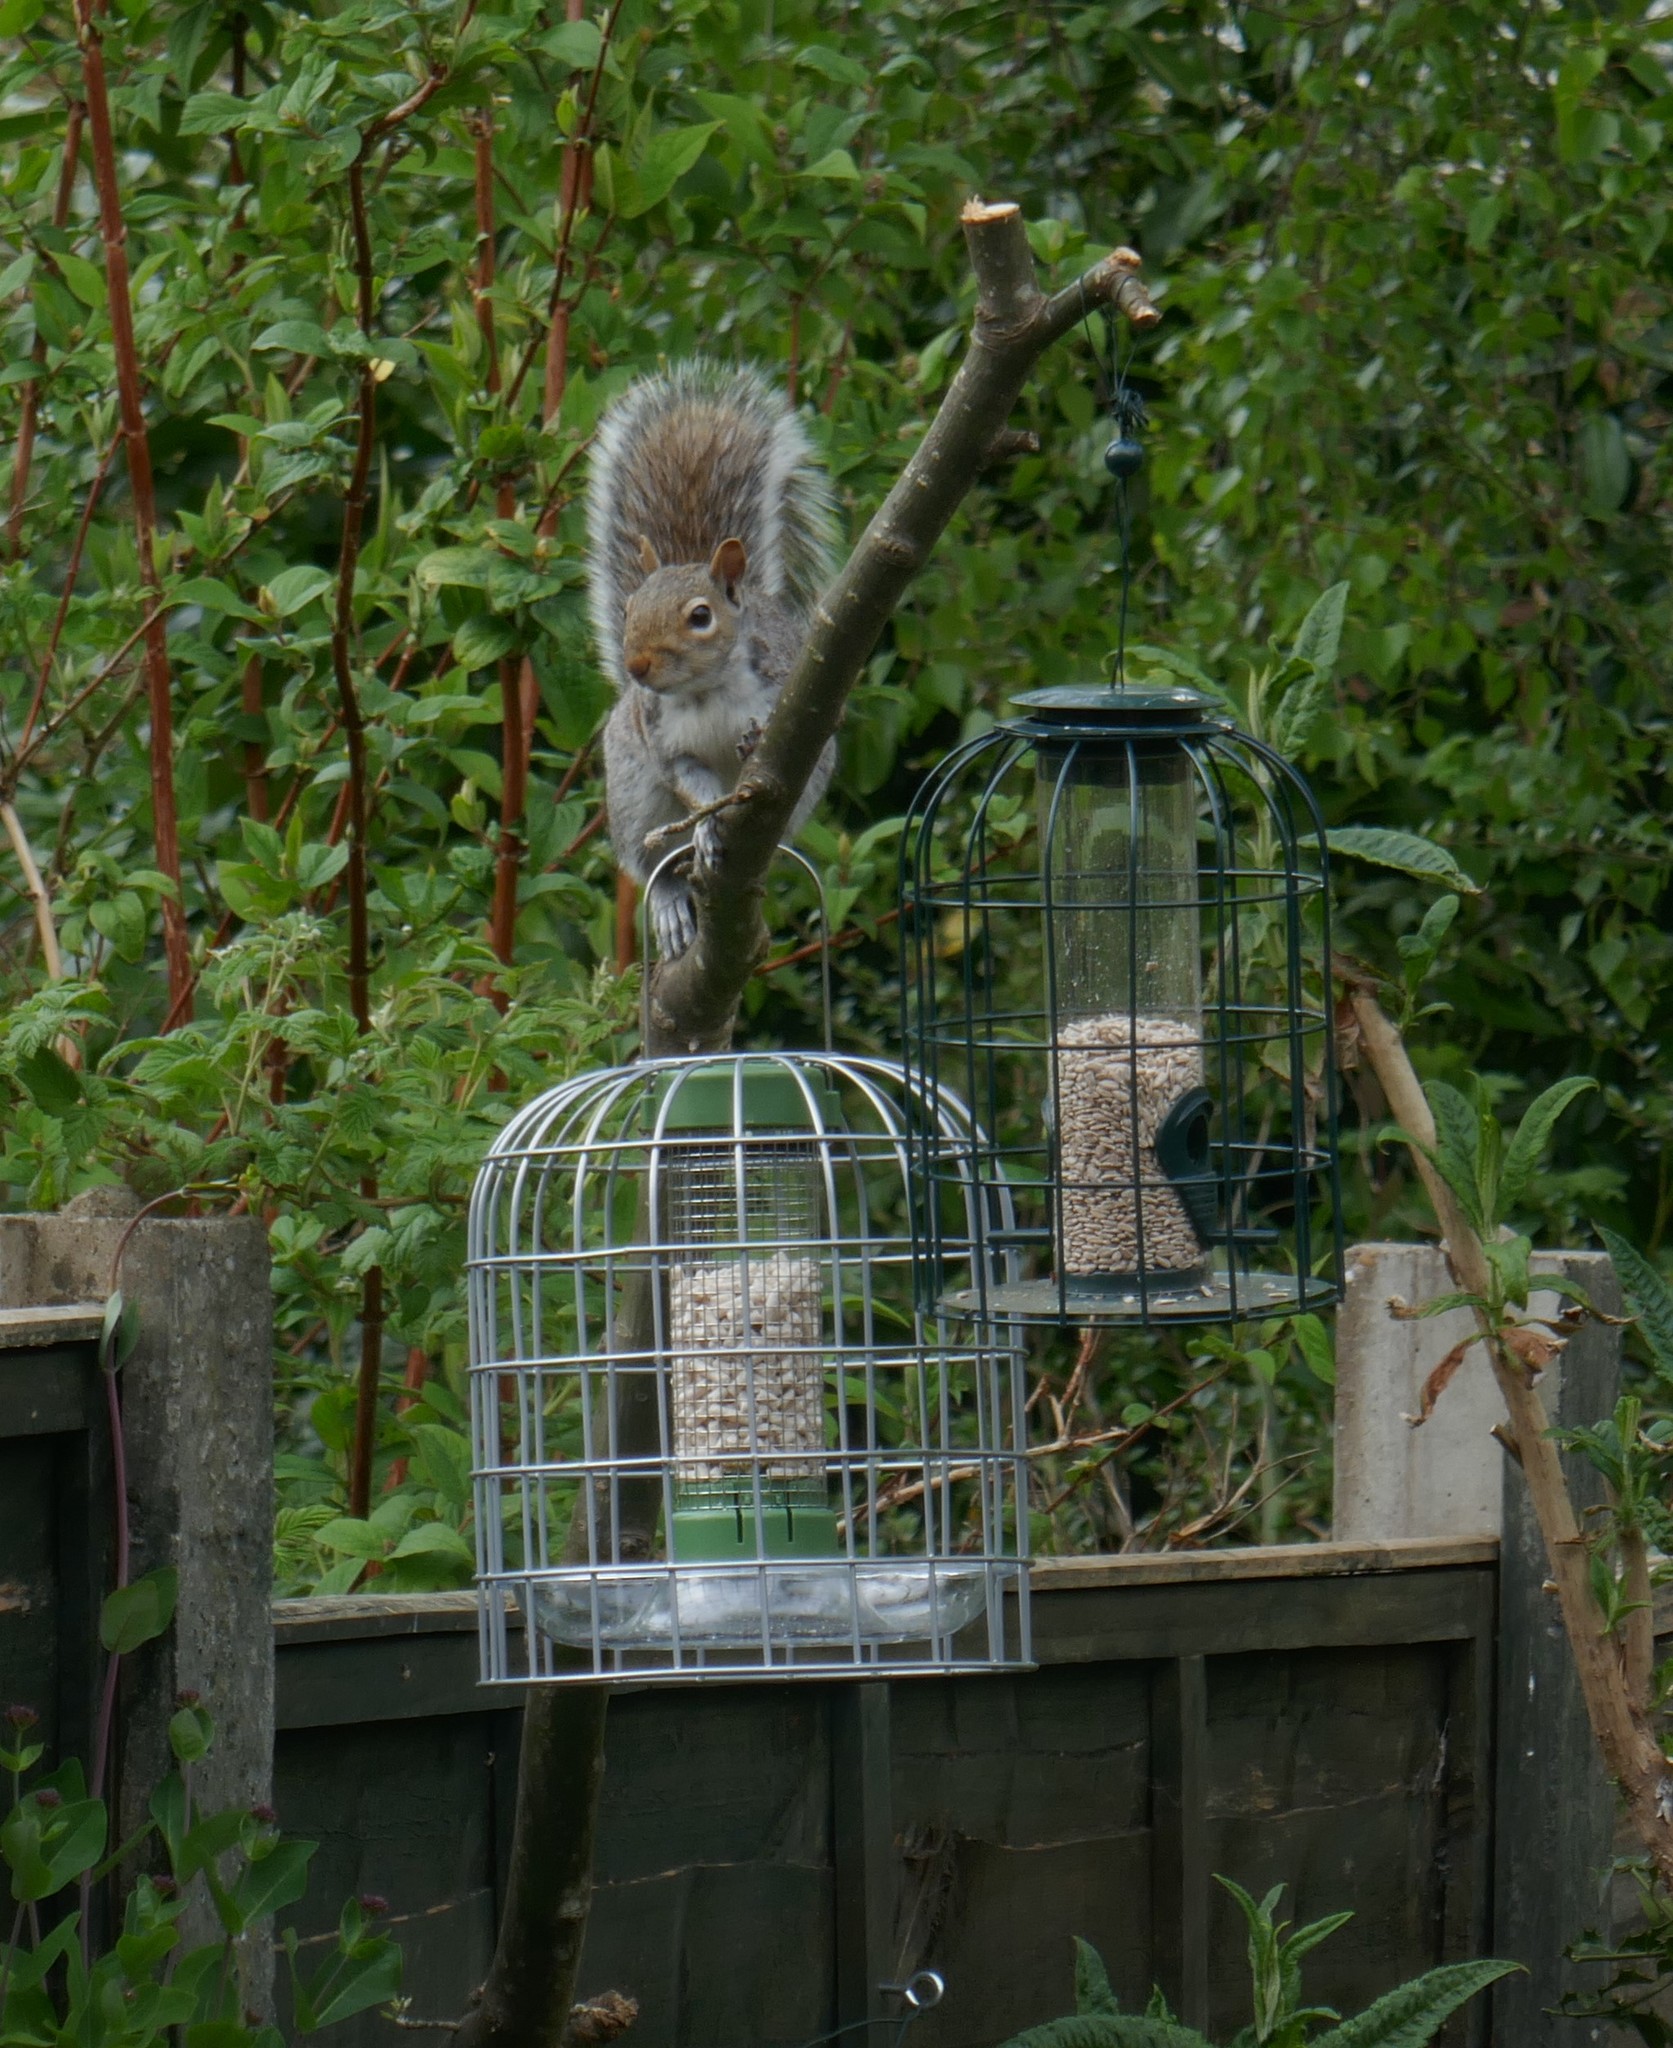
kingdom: Animalia
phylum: Chordata
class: Mammalia
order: Rodentia
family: Sciuridae
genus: Sciurus
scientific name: Sciurus carolinensis
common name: Eastern gray squirrel
